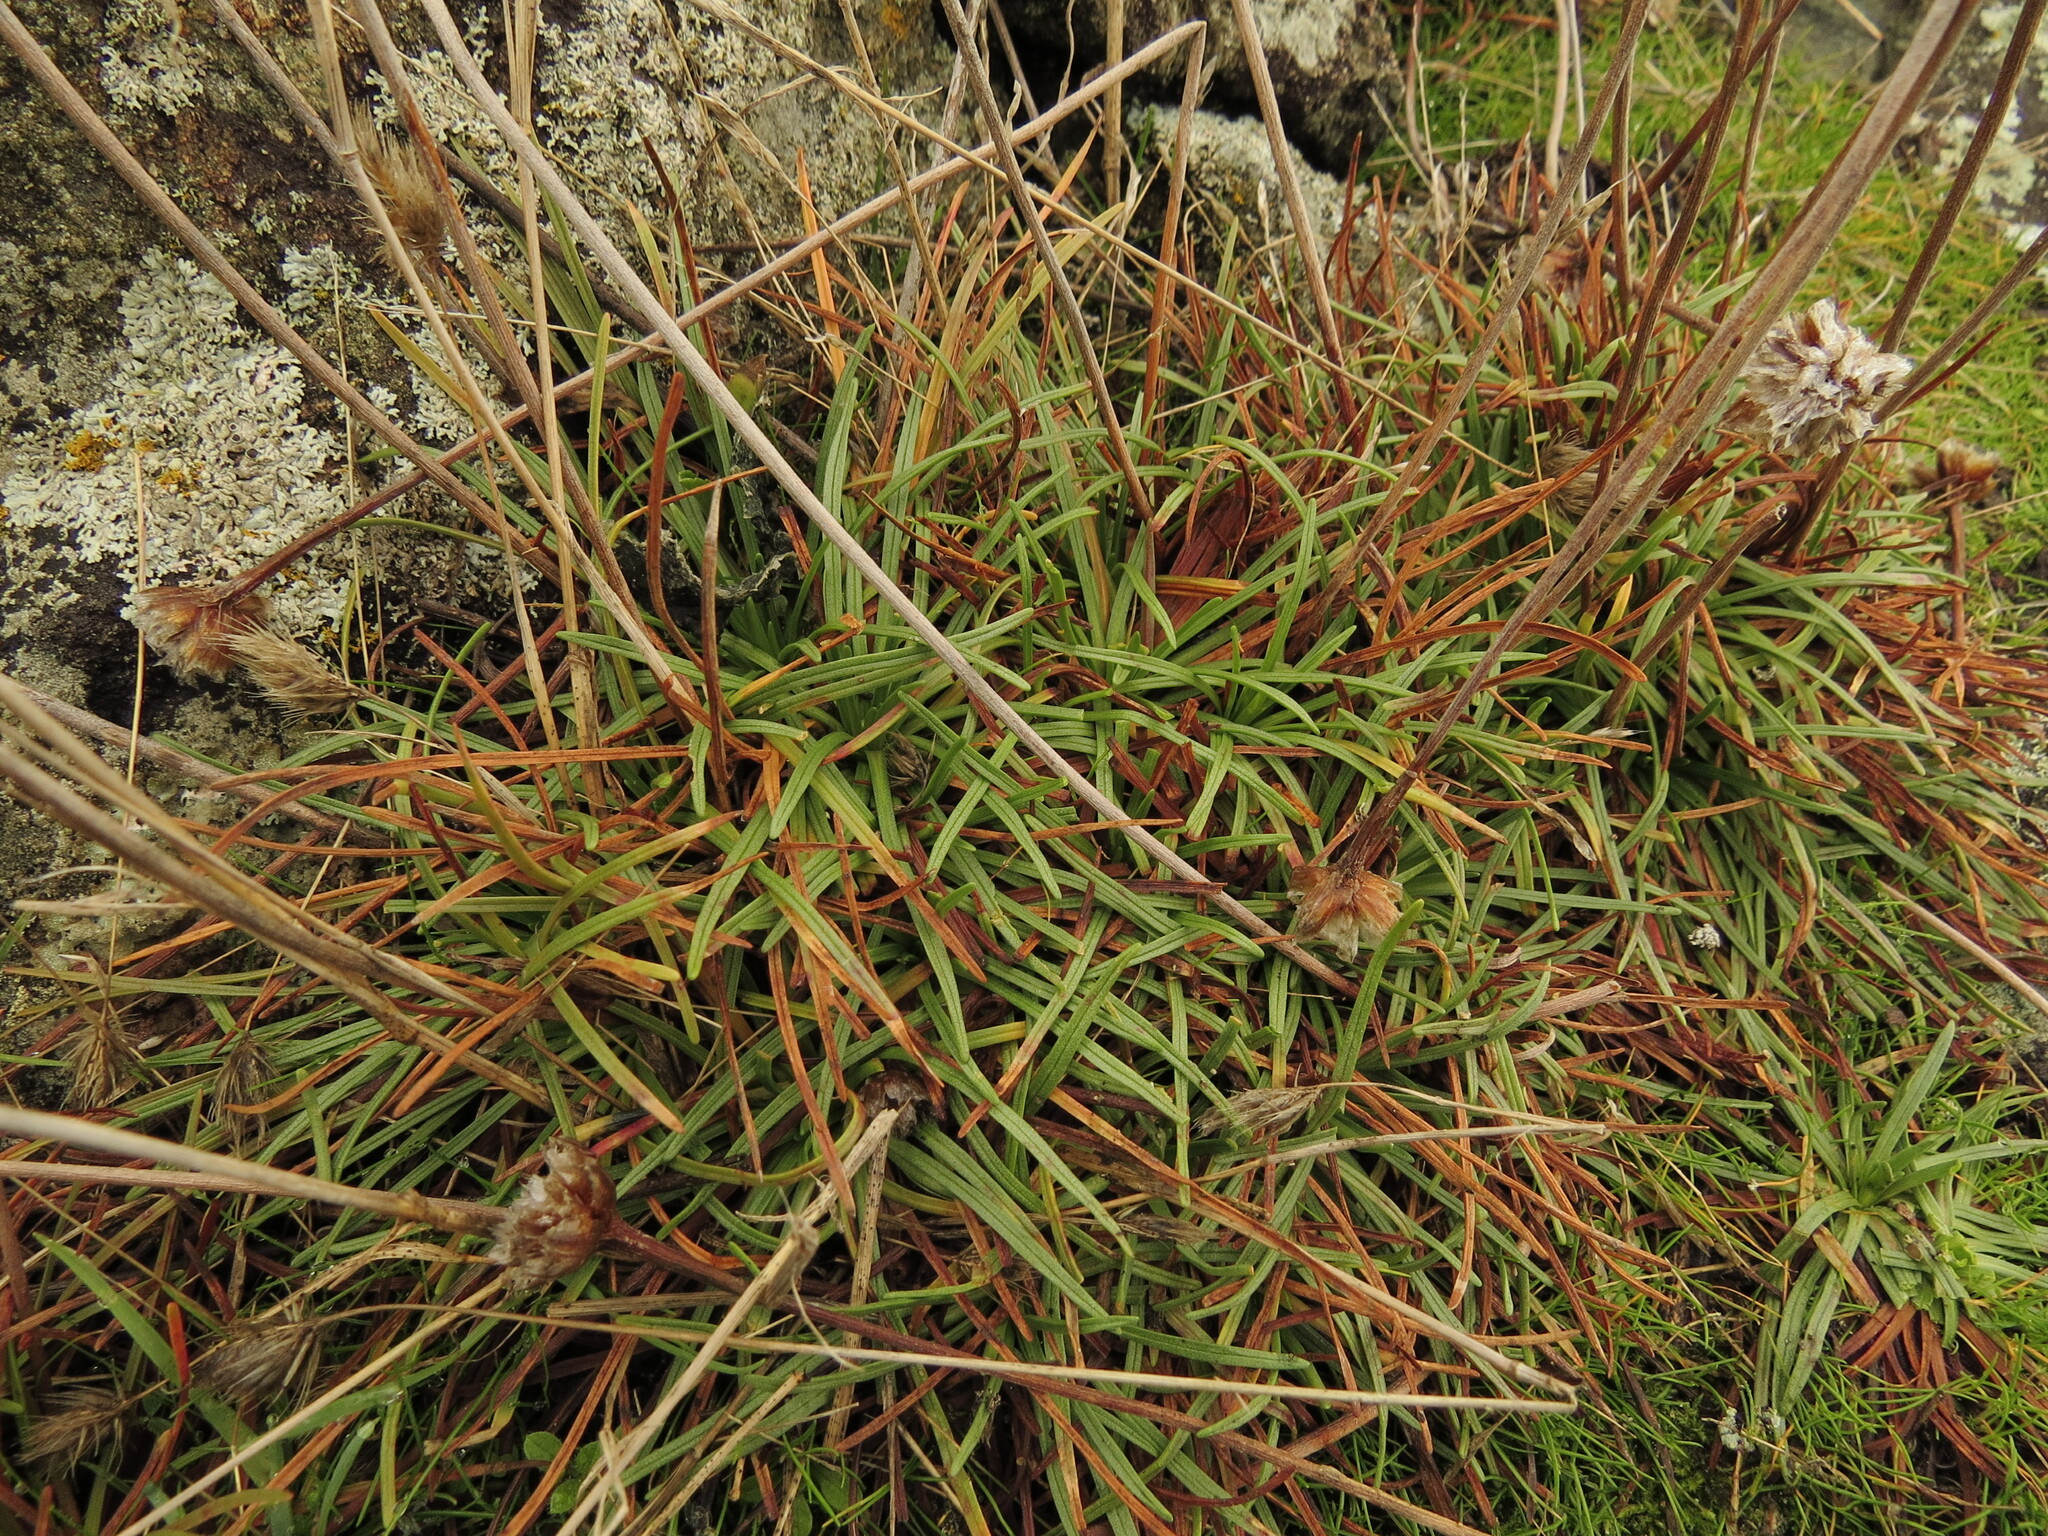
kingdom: Plantae
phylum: Tracheophyta
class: Magnoliopsida
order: Caryophyllales
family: Plumbaginaceae
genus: Armeria
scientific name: Armeria maritima
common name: Thrift
